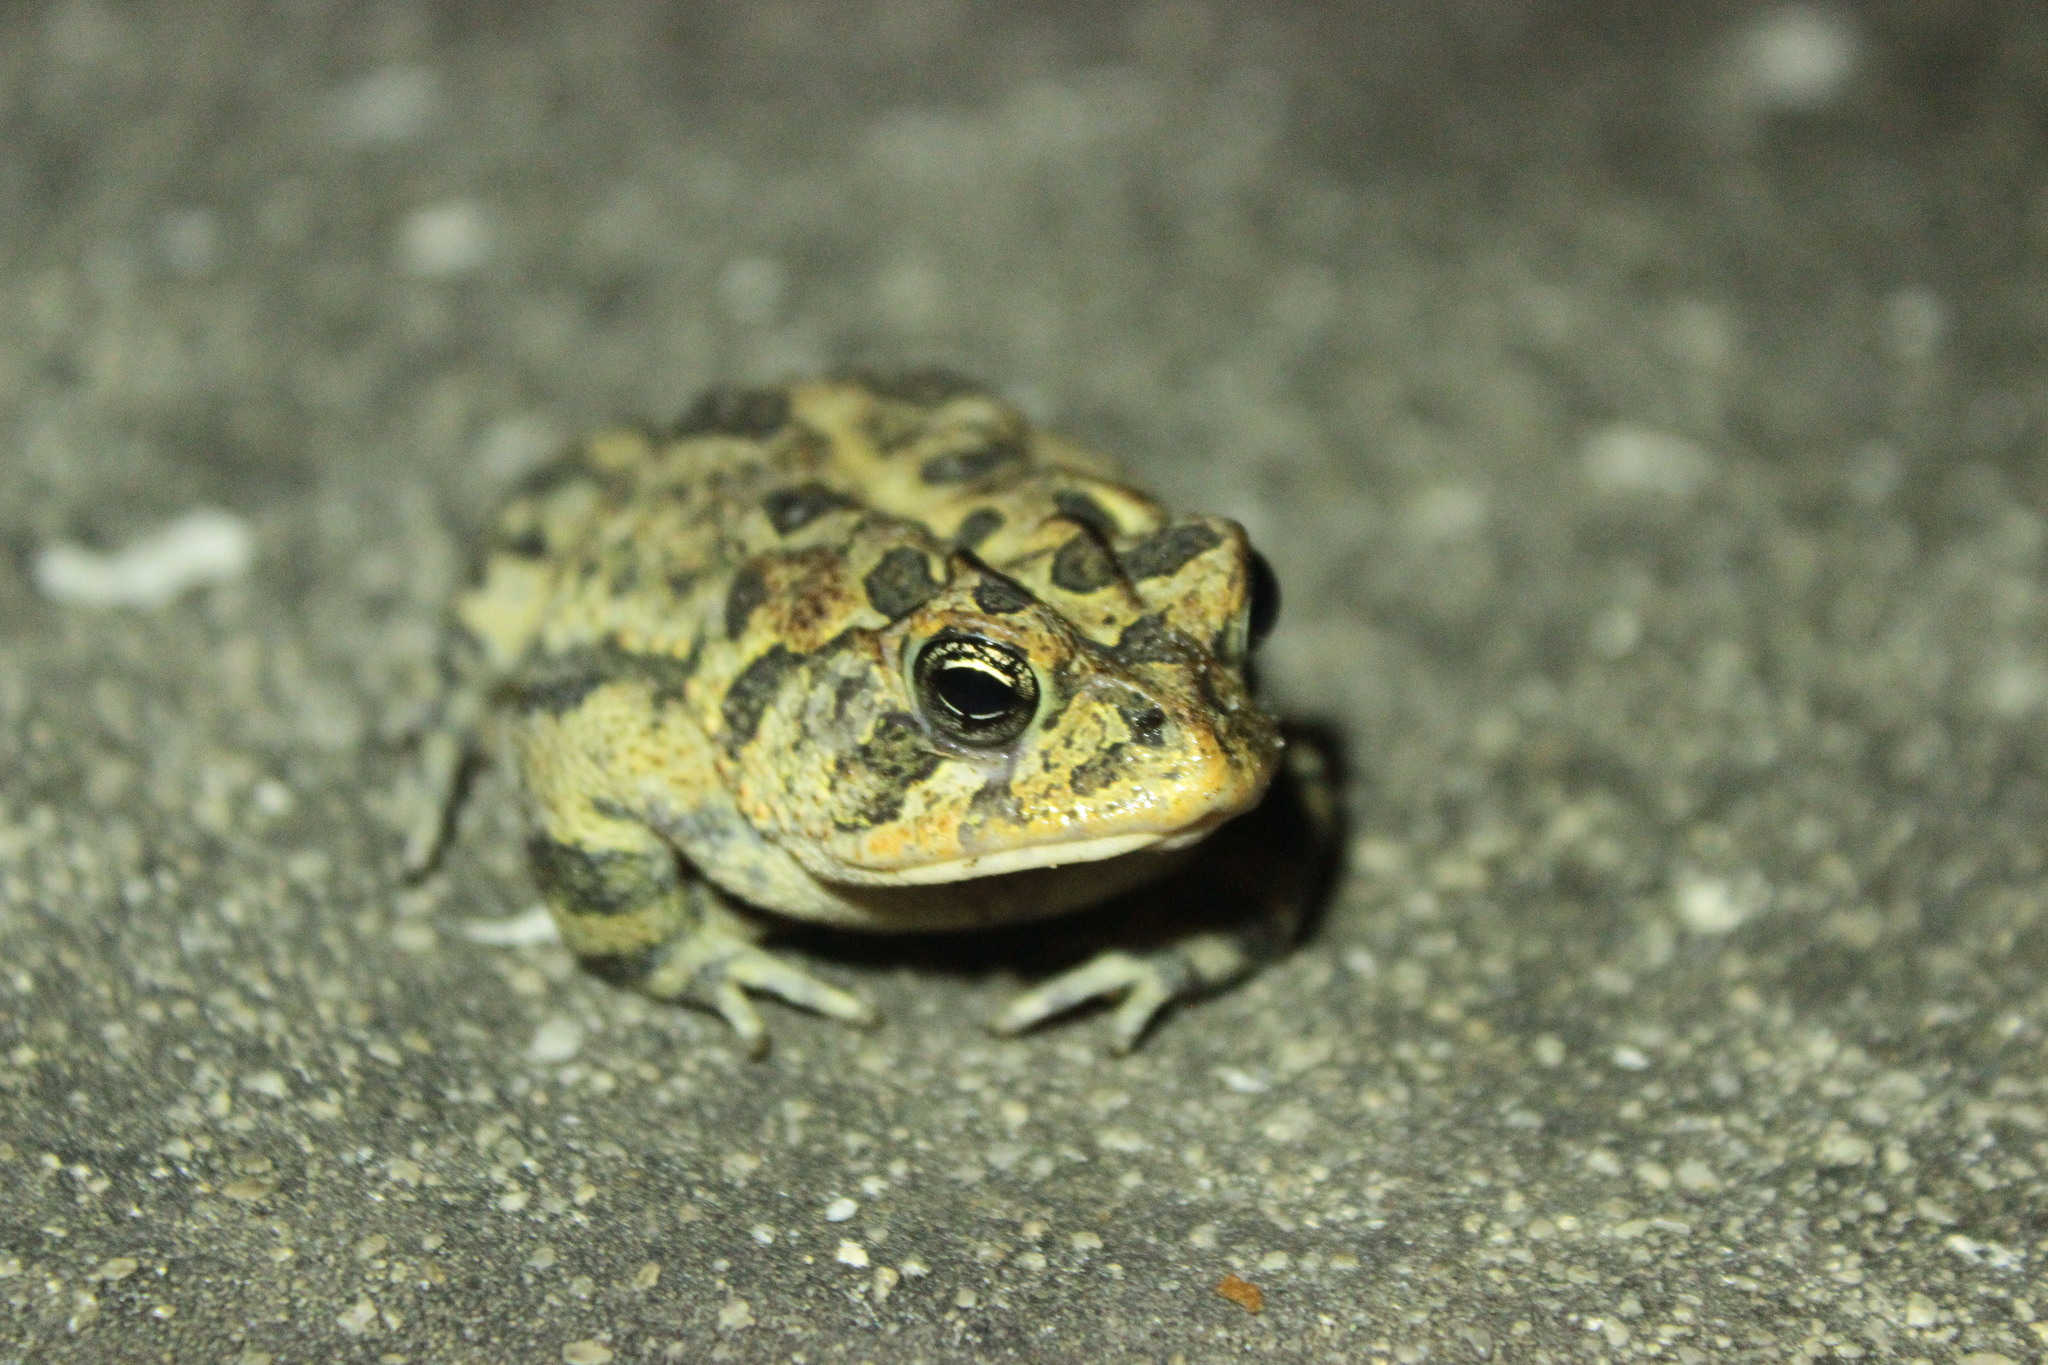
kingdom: Animalia
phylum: Chordata
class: Amphibia
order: Anura
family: Bufonidae
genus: Anaxyrus
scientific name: Anaxyrus terrestris
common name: Southern toad
